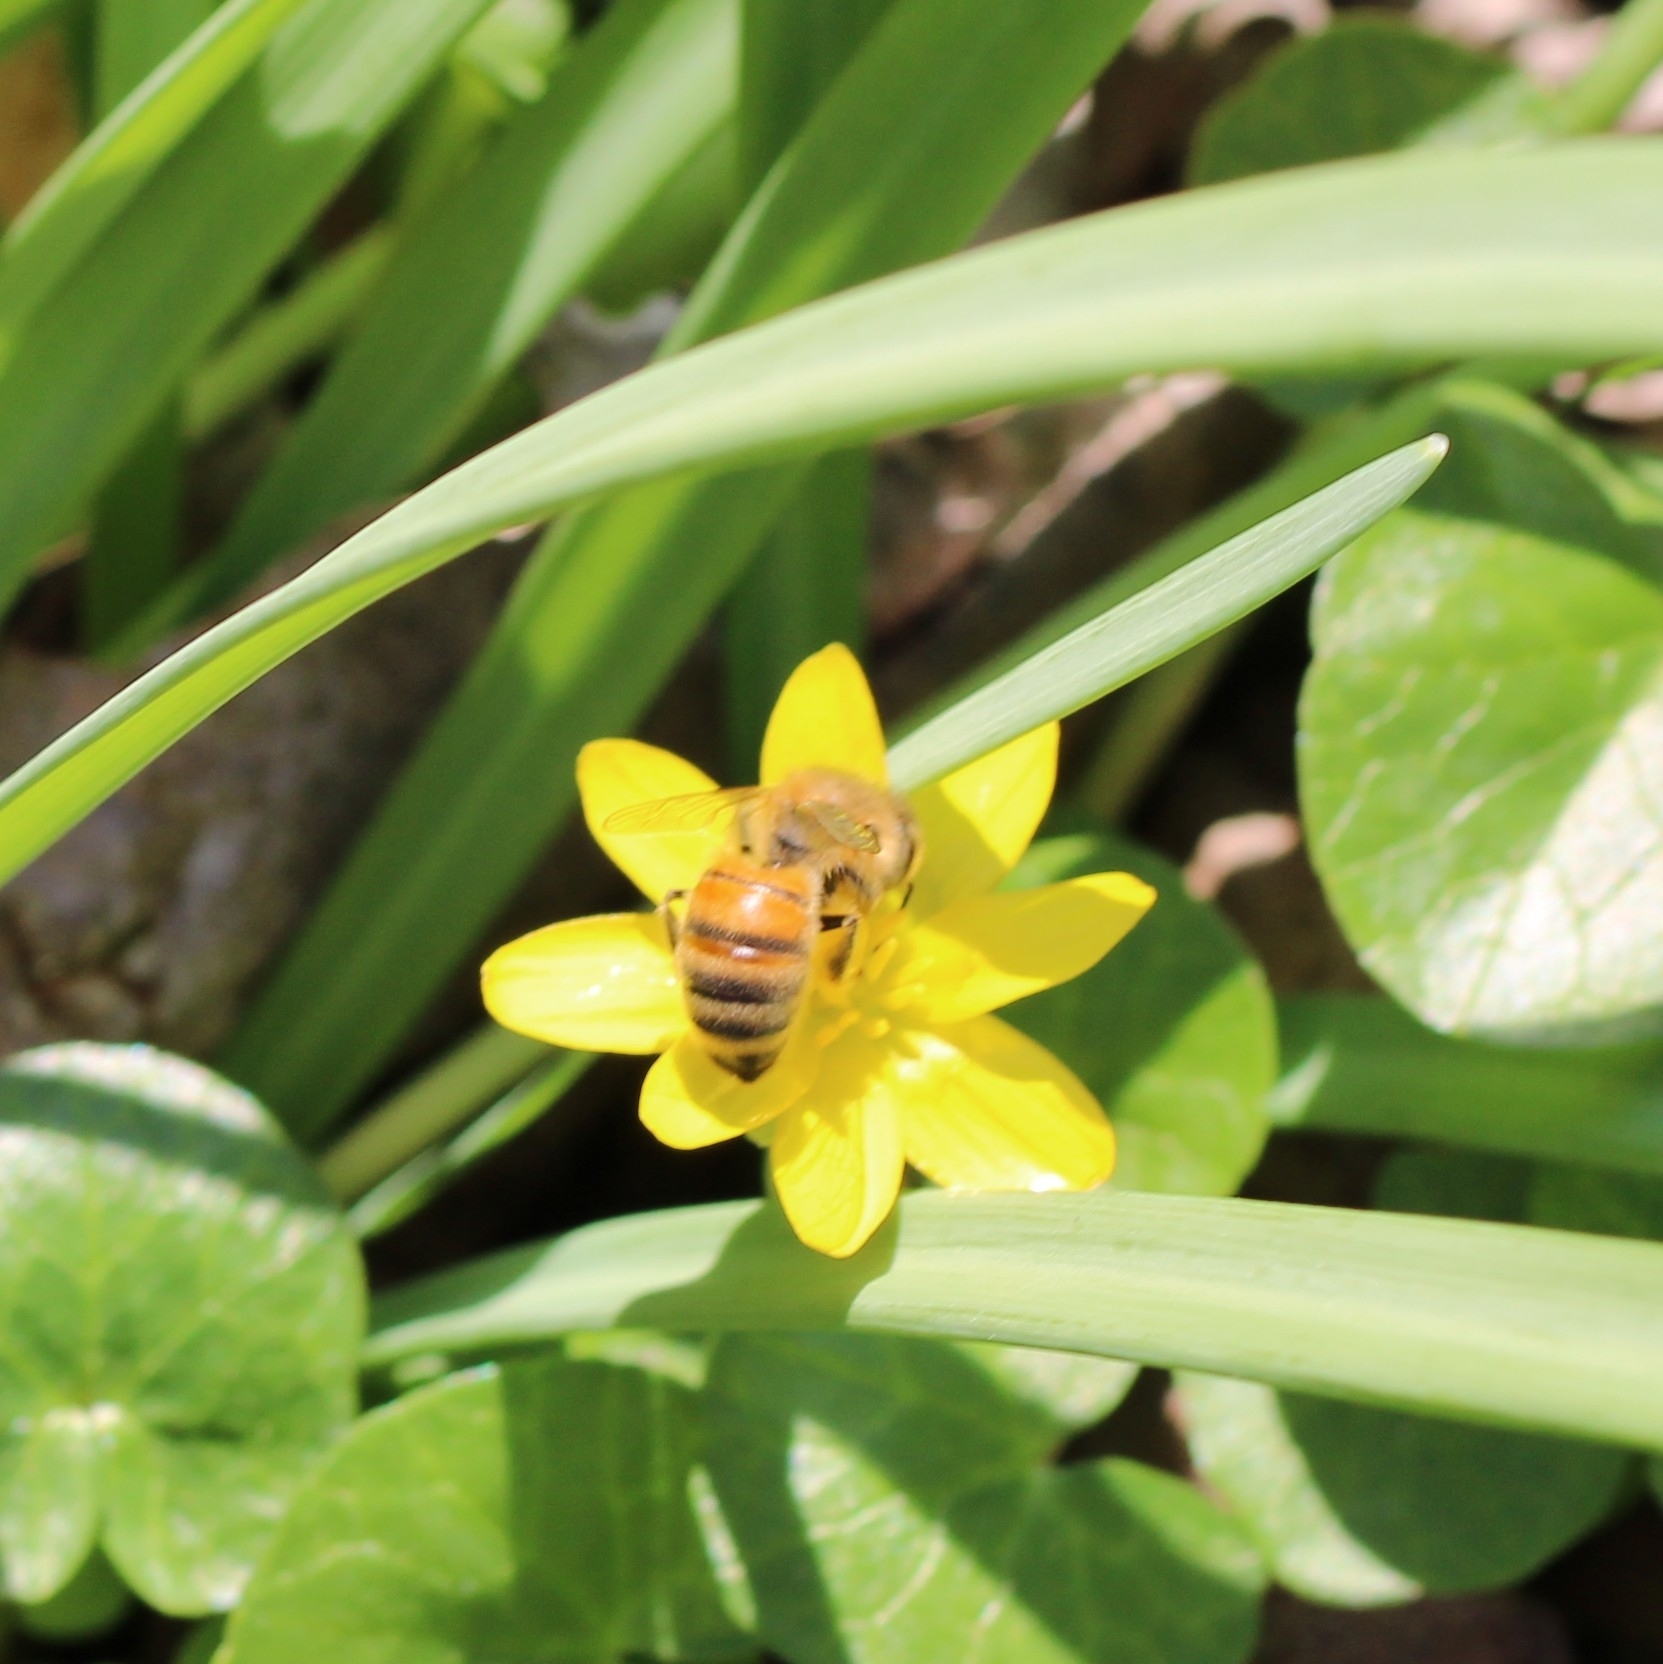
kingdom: Animalia
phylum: Arthropoda
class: Insecta
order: Hymenoptera
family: Apidae
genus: Apis
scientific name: Apis mellifera
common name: Honey bee
